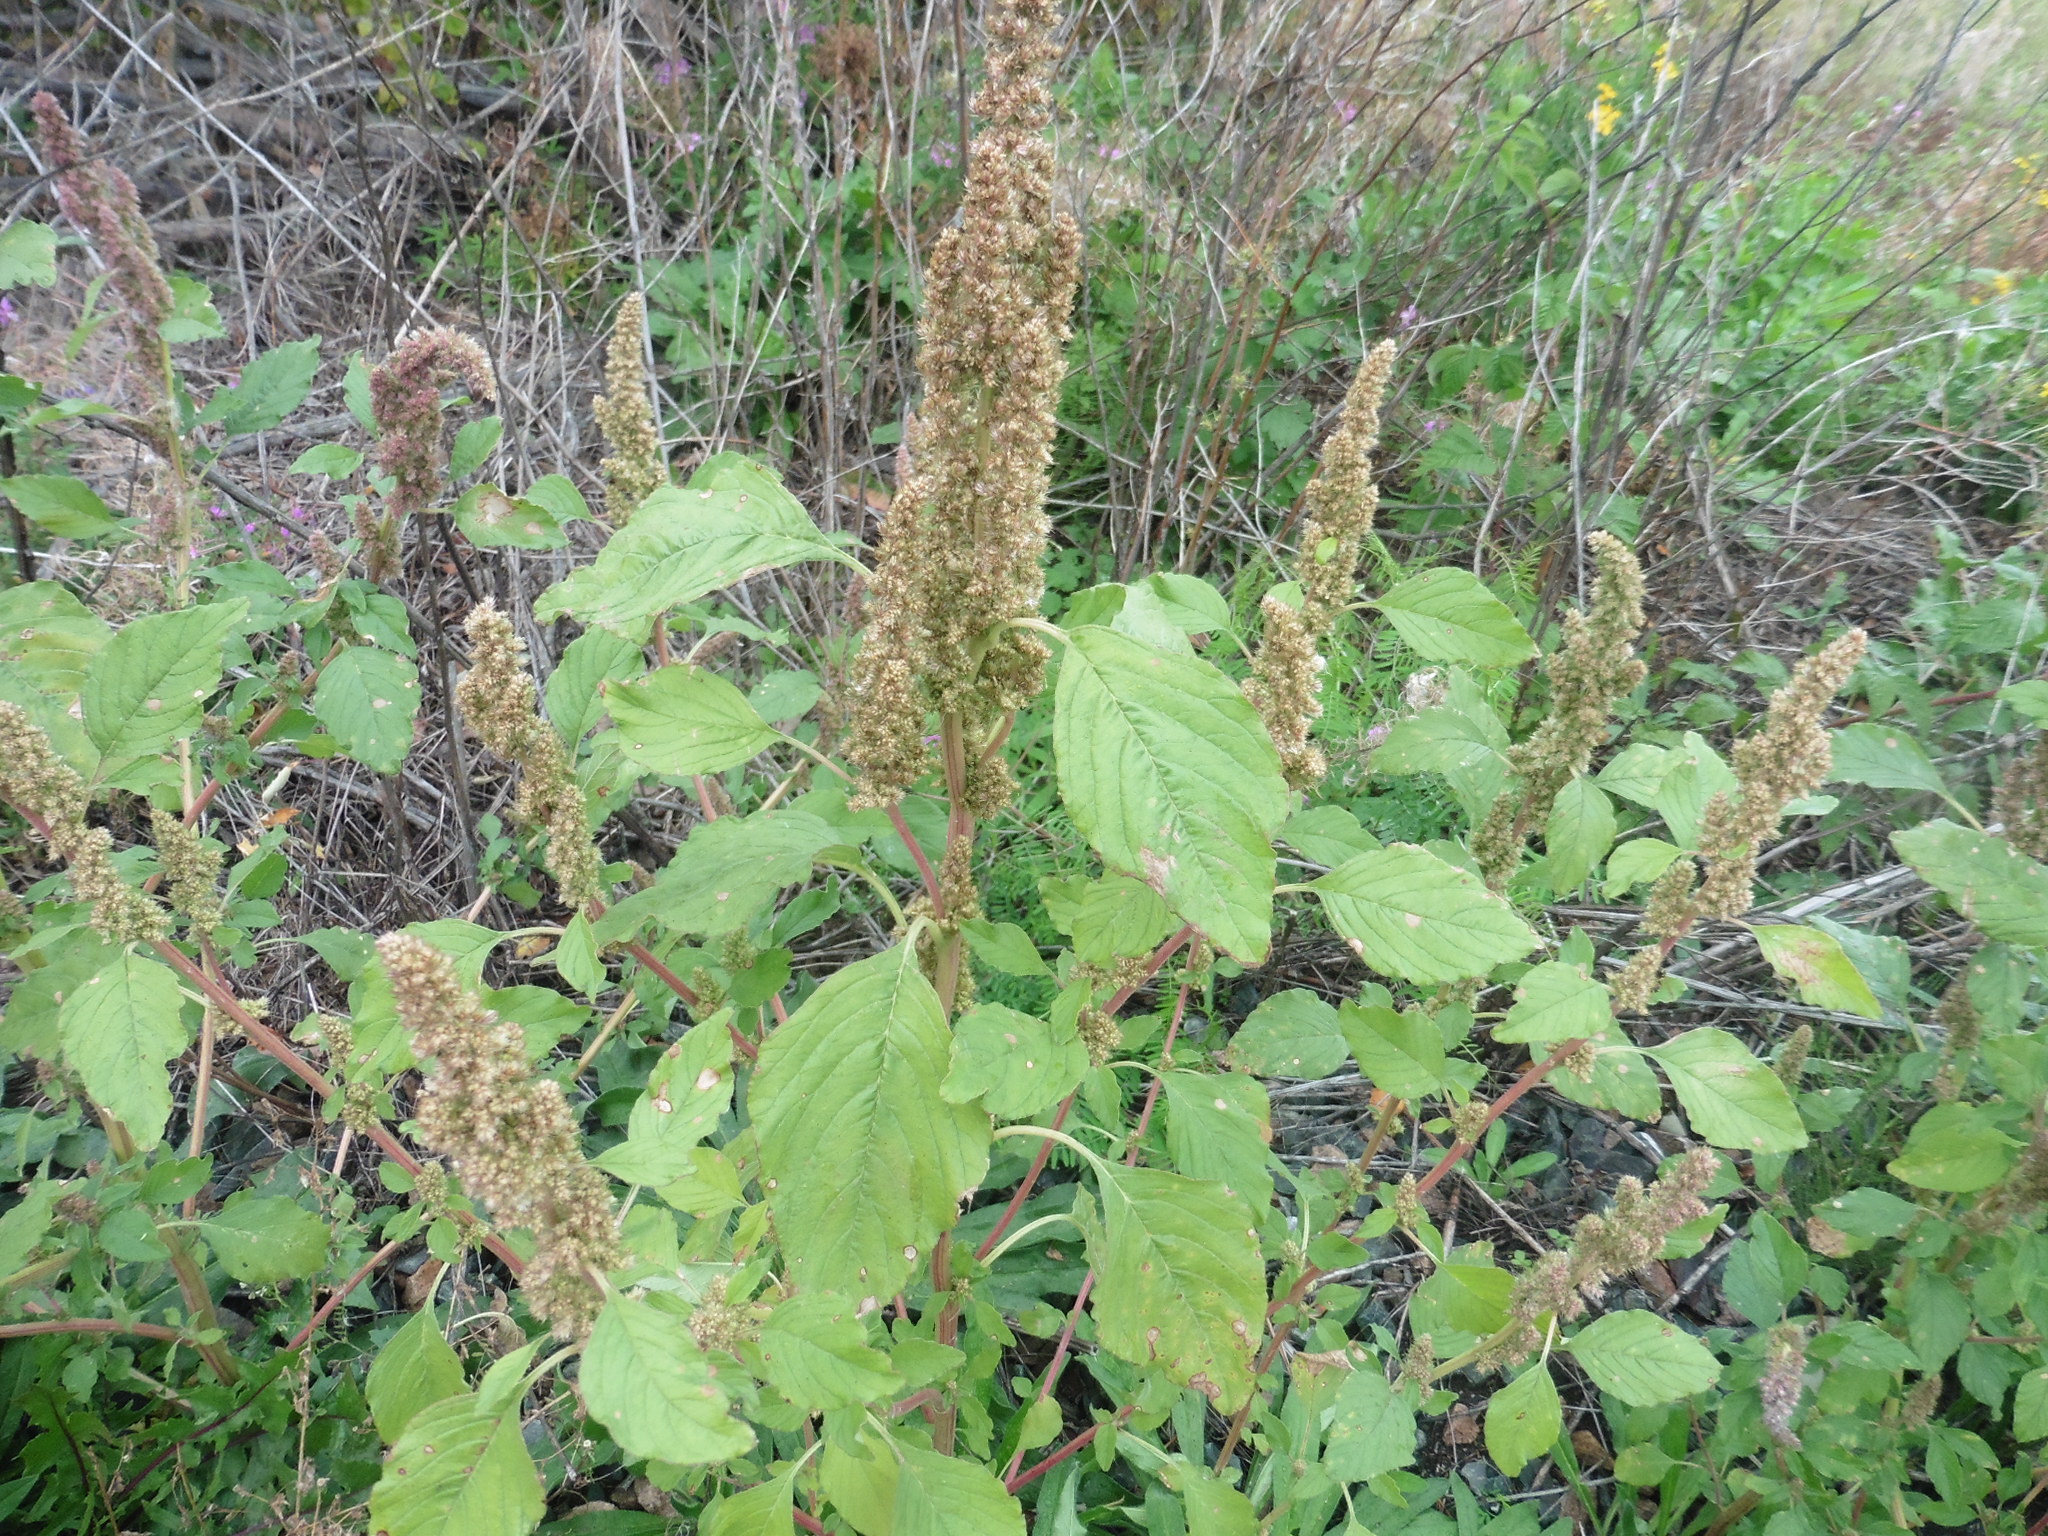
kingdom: Plantae
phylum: Tracheophyta
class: Magnoliopsida
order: Caryophyllales
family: Amaranthaceae
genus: Amaranthus
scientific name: Amaranthus retroflexus
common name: Redroot amaranth
